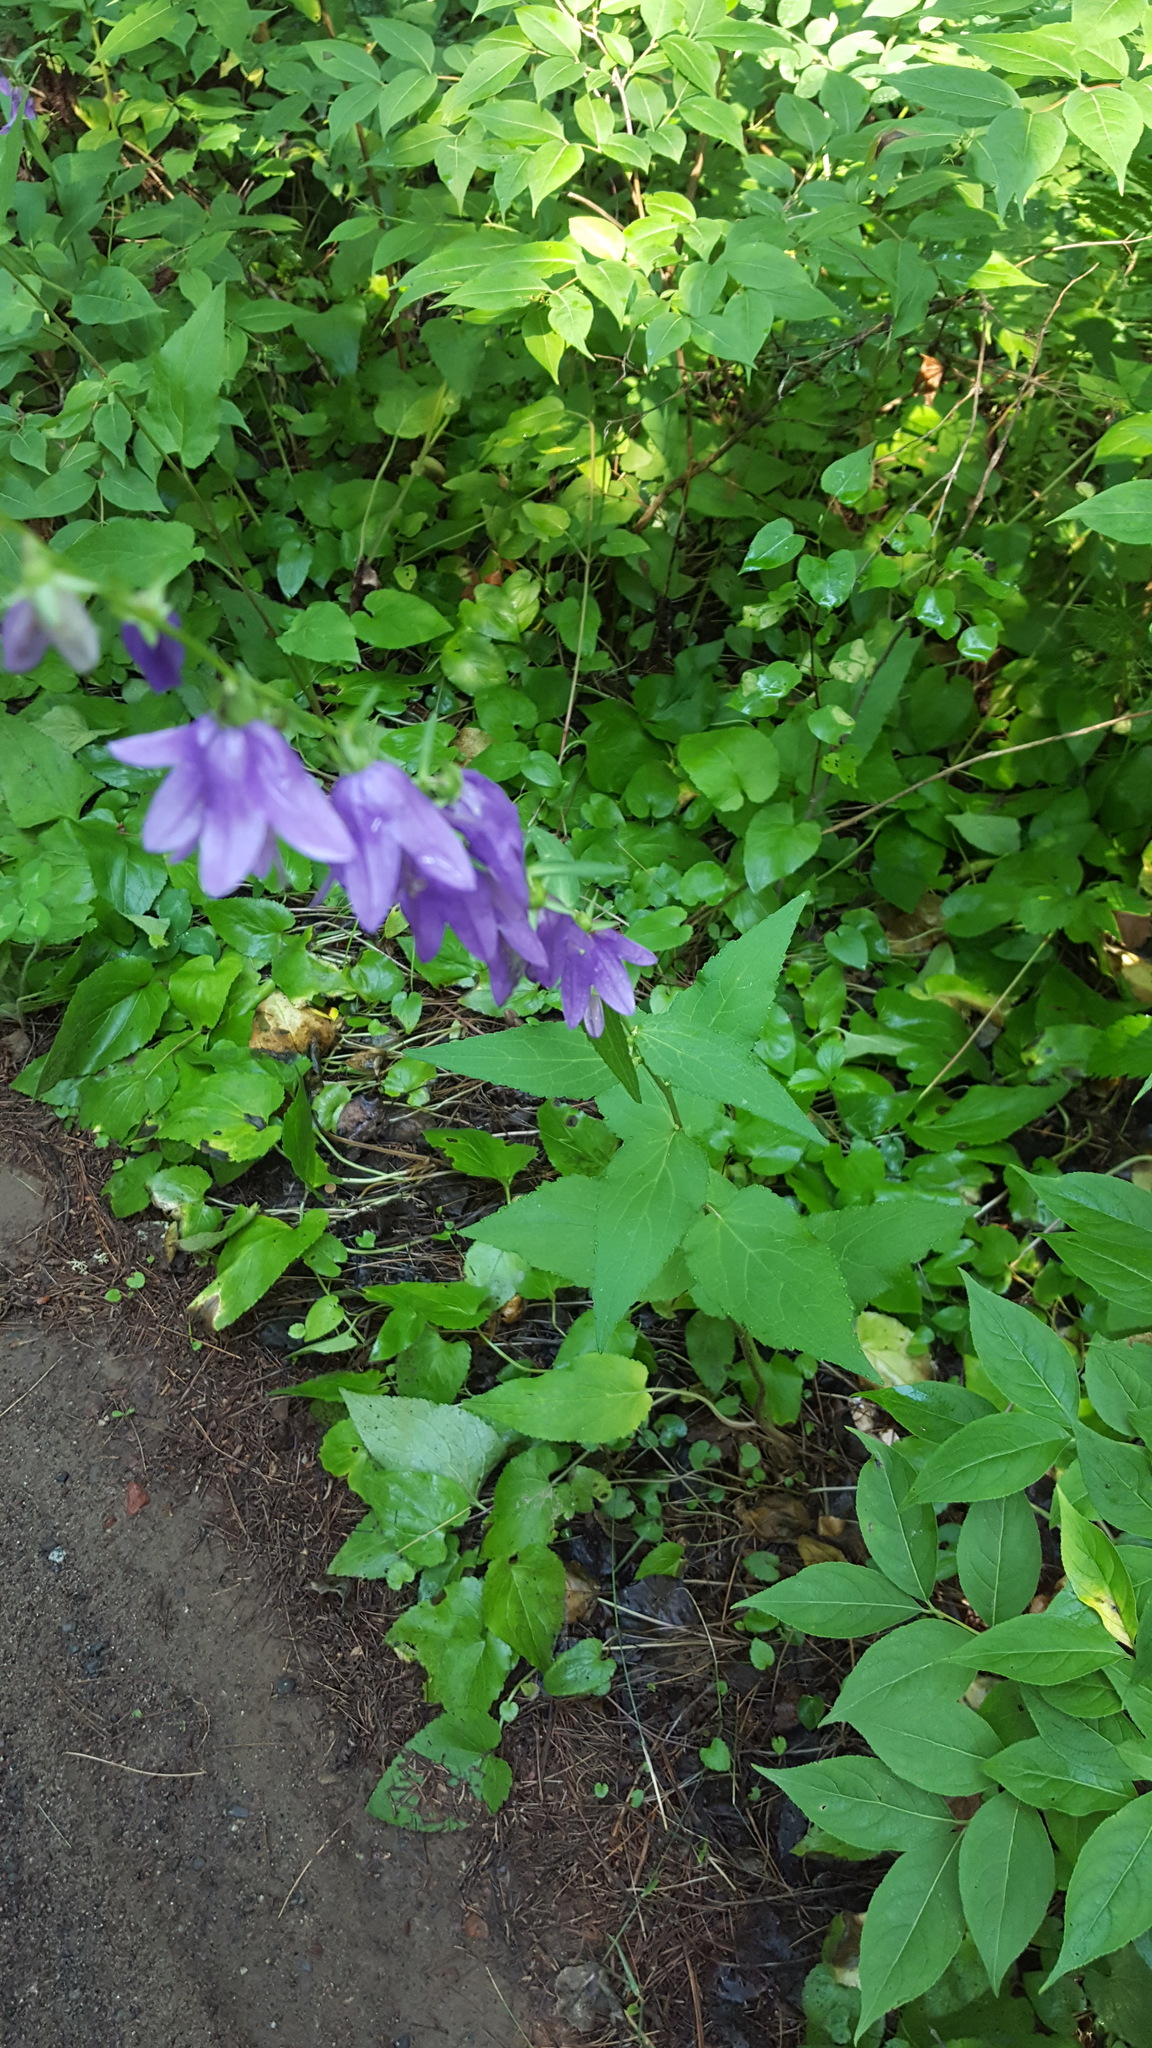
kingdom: Plantae
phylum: Tracheophyta
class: Magnoliopsida
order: Asterales
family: Campanulaceae
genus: Campanula
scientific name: Campanula rapunculoides
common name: Creeping bellflower
